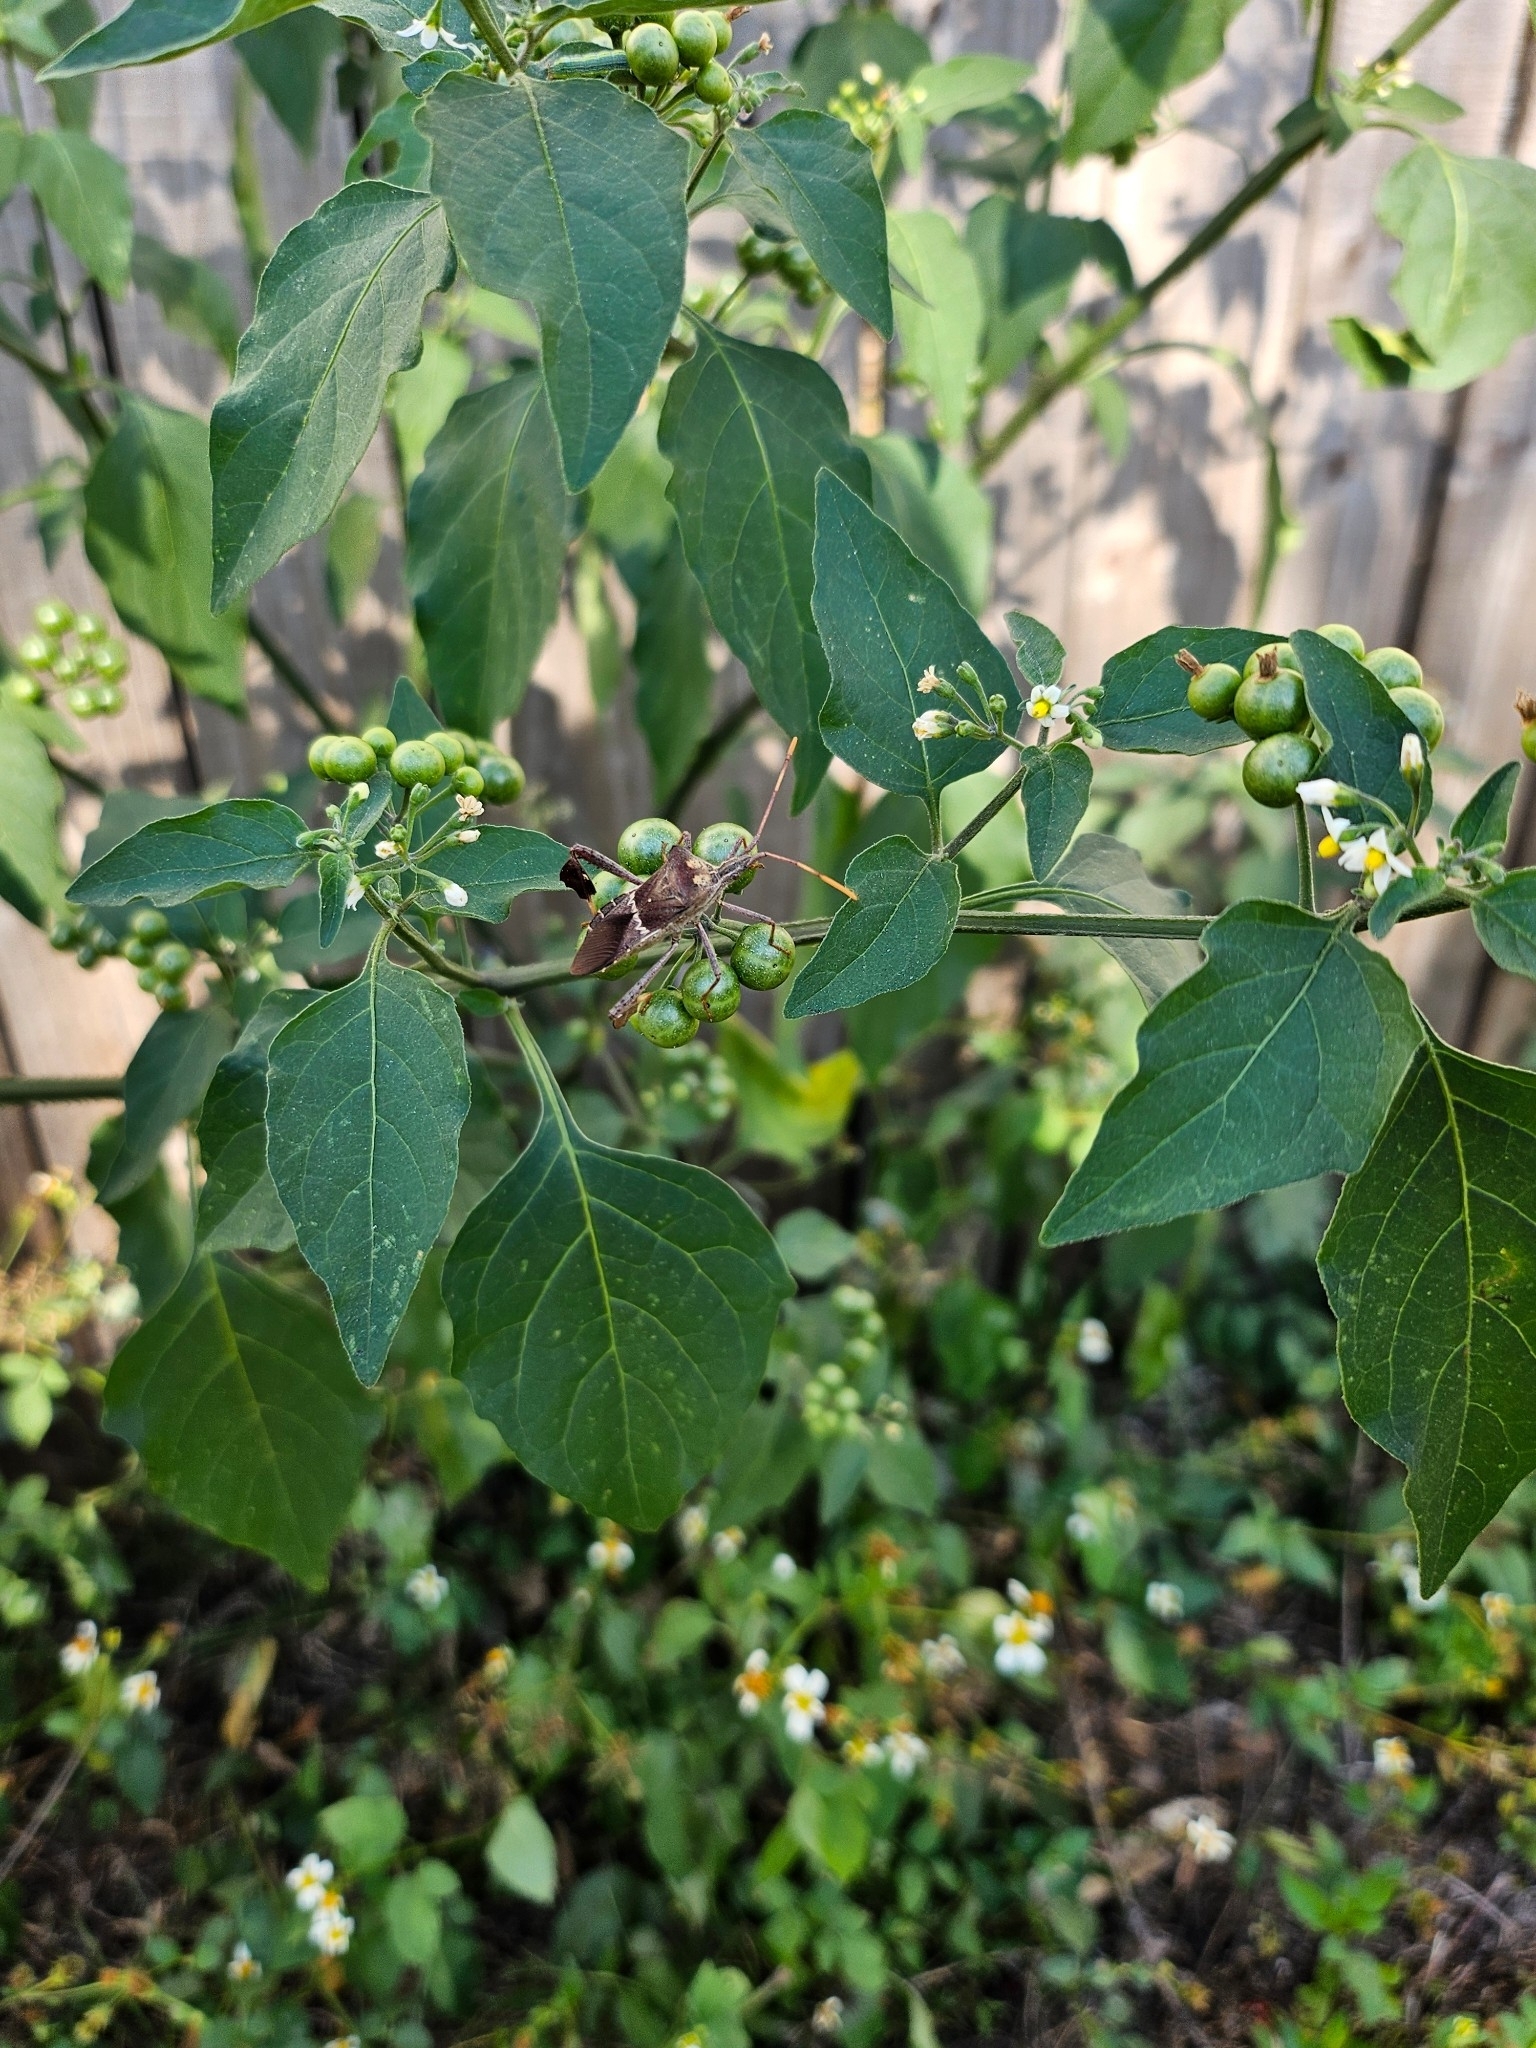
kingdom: Plantae
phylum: Tracheophyta
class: Magnoliopsida
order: Solanales
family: Solanaceae
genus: Solanum
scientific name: Solanum americanum
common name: American black nightshade
